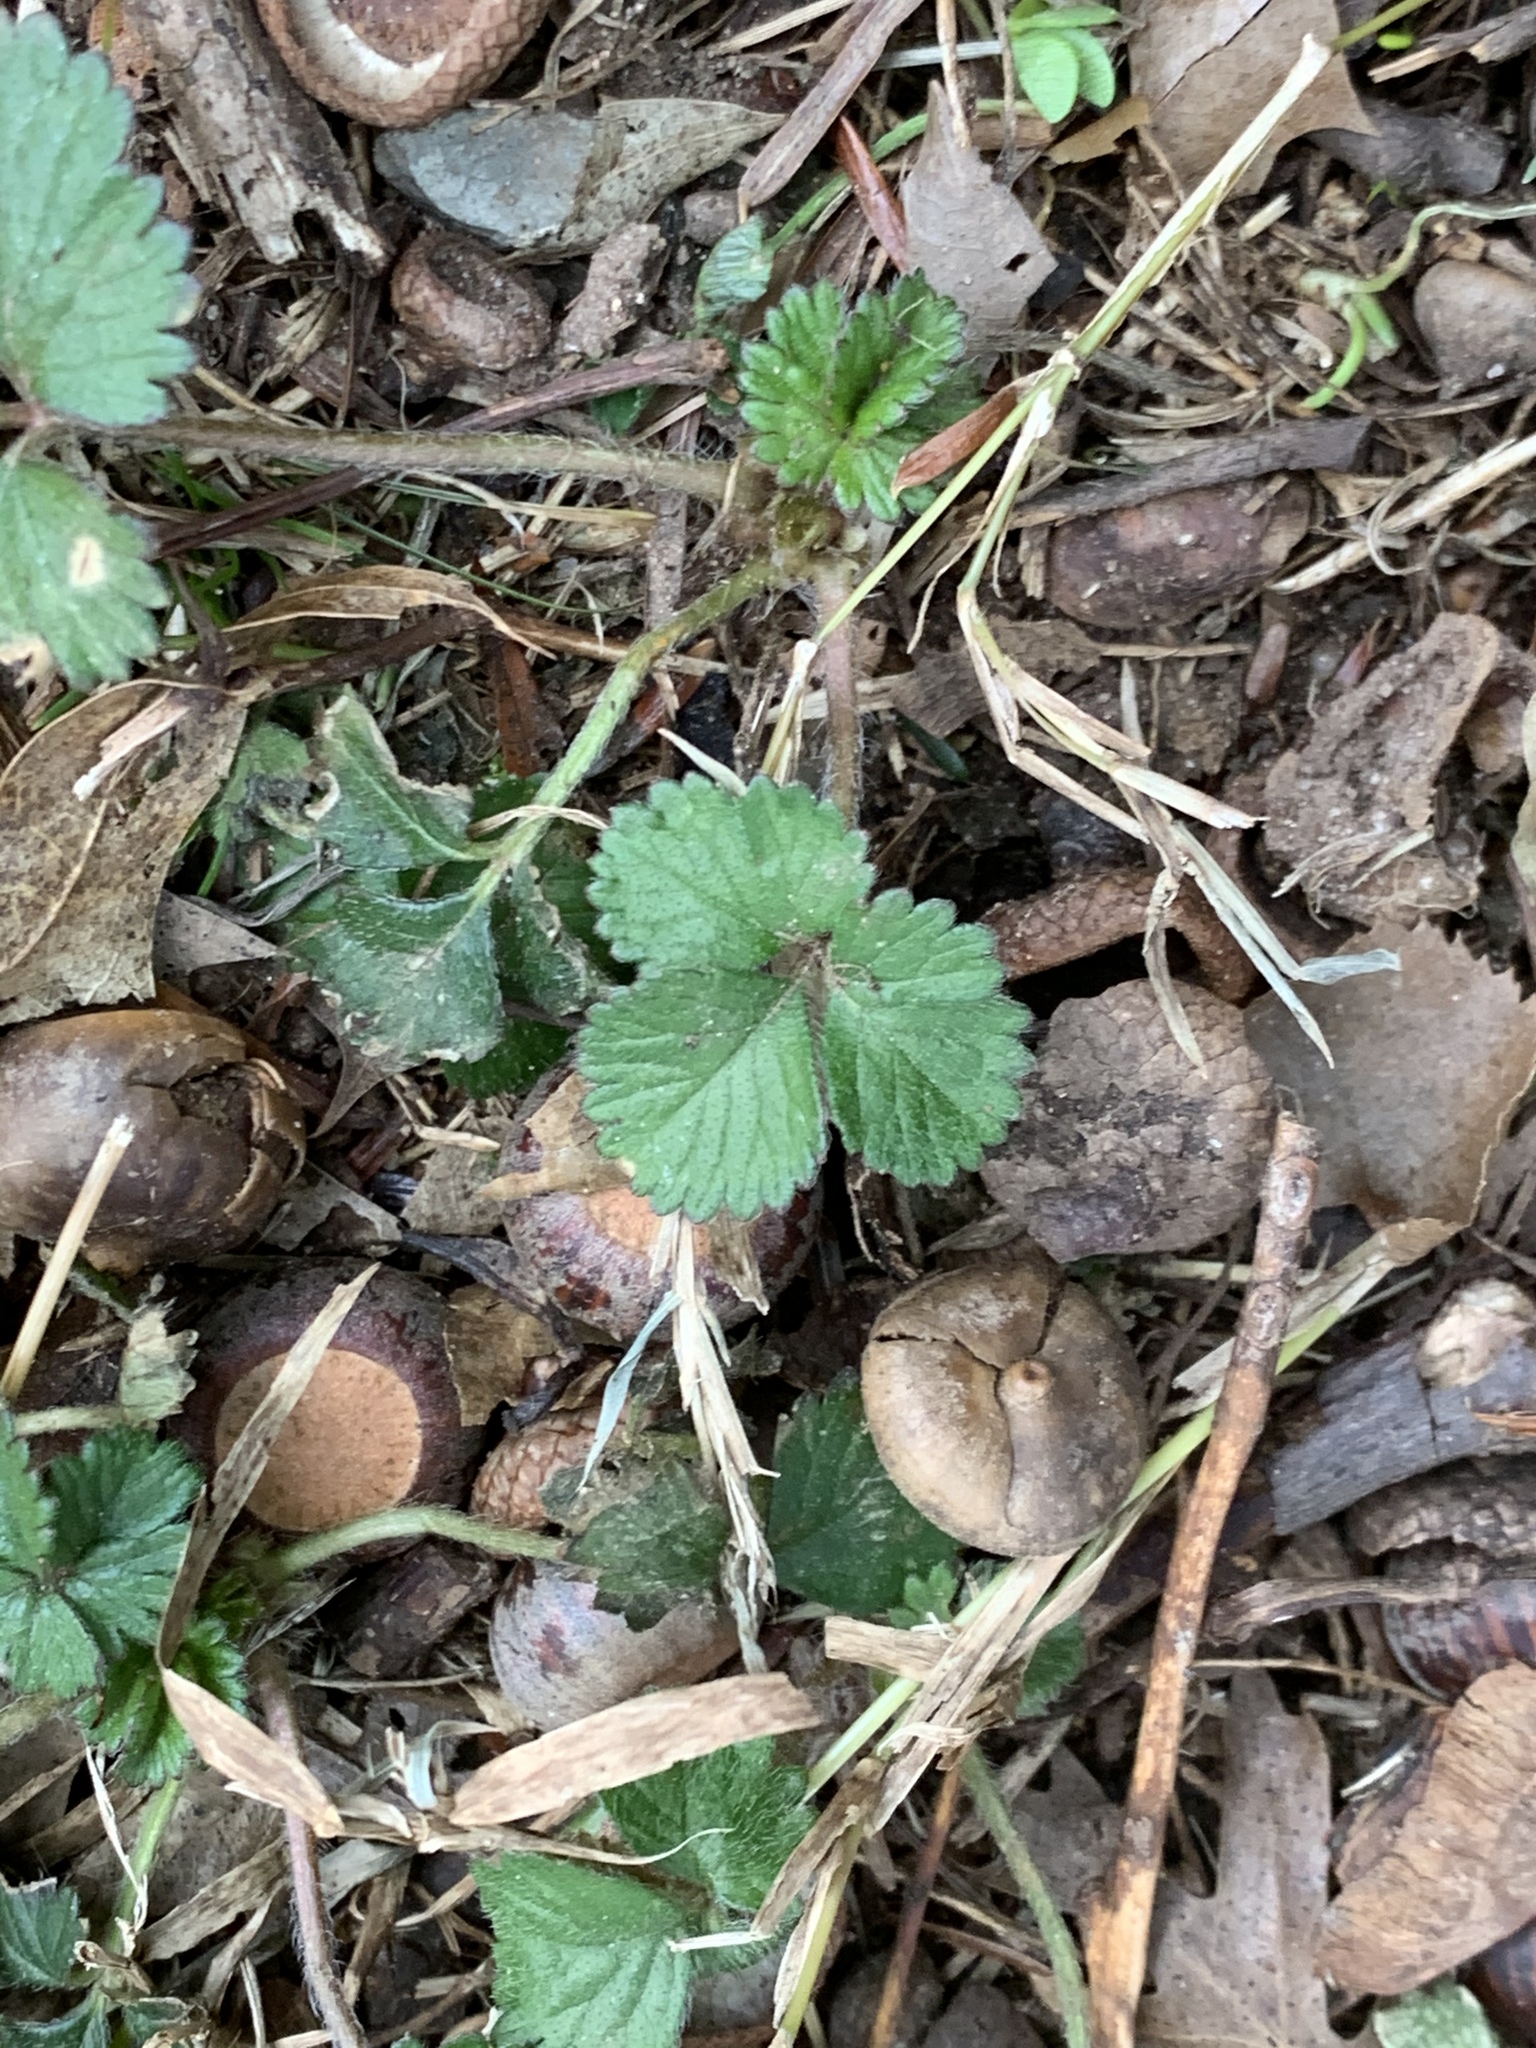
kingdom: Plantae
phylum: Tracheophyta
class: Magnoliopsida
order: Rosales
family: Rosaceae
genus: Potentilla
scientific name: Potentilla indica
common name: Yellow-flowered strawberry
